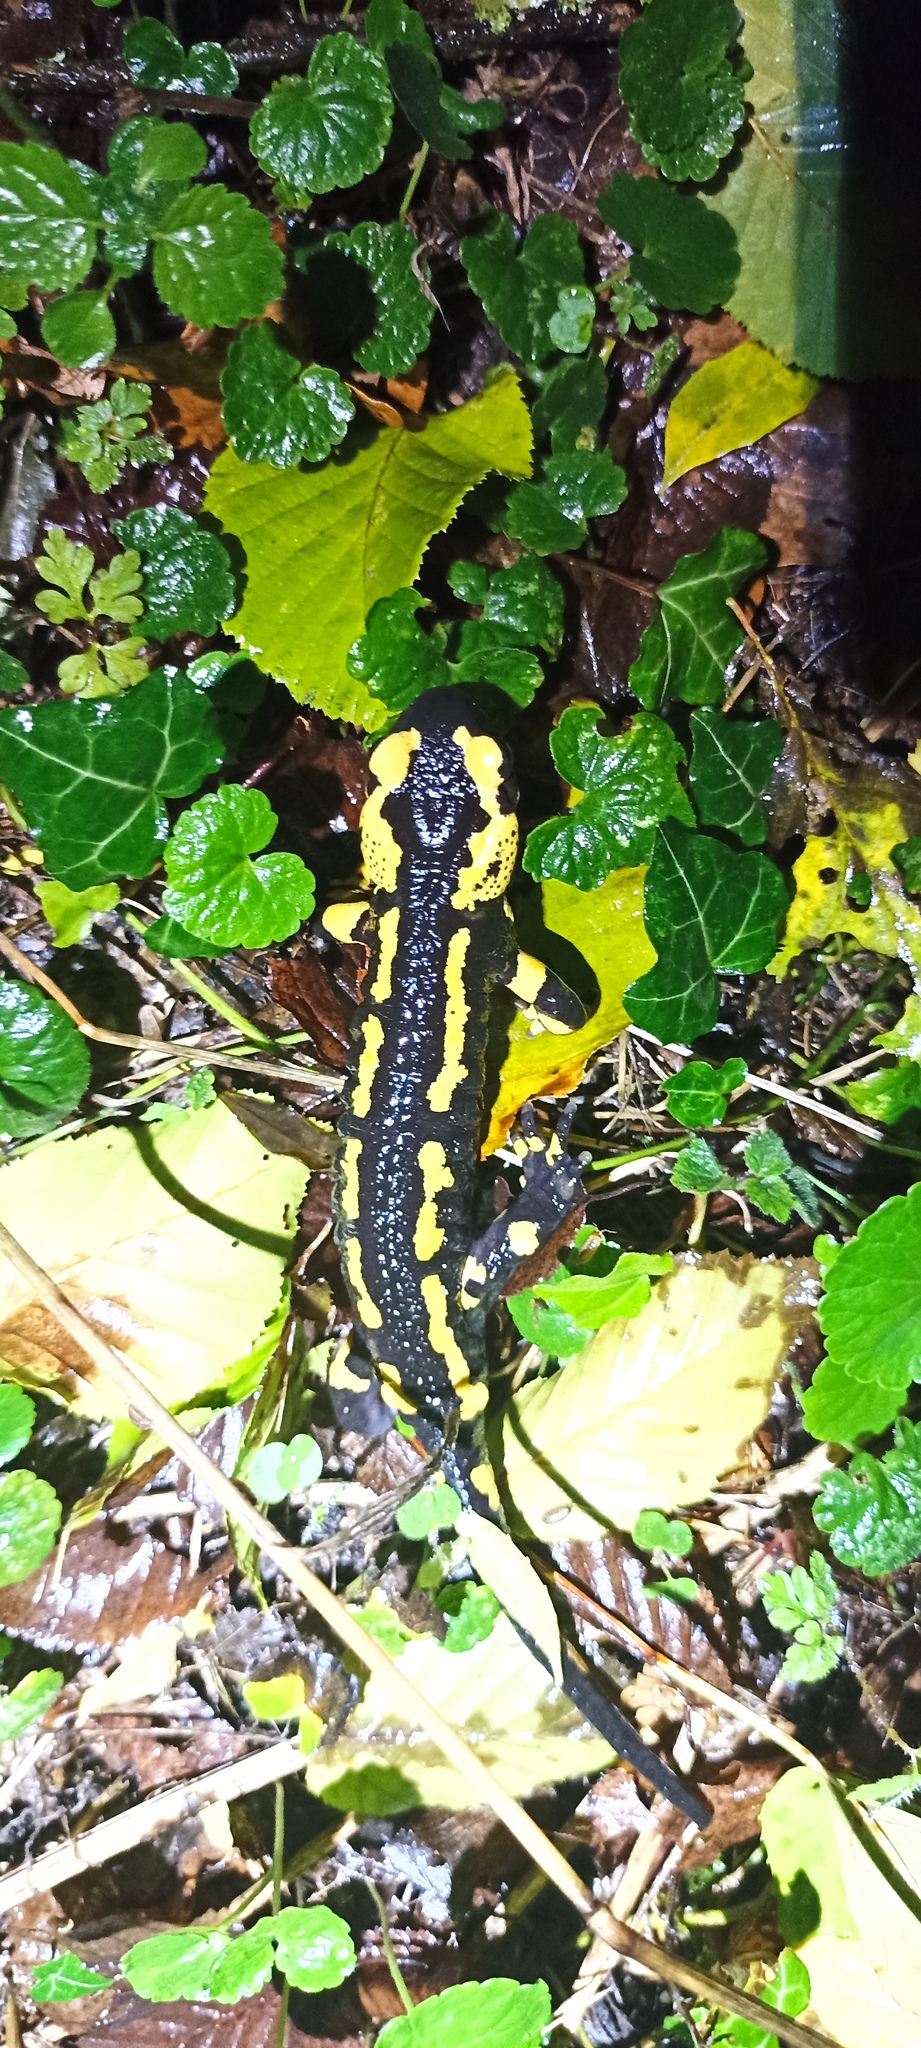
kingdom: Animalia
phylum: Chordata
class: Amphibia
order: Caudata
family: Salamandridae
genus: Salamandra
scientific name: Salamandra salamandra
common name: Fire salamander
